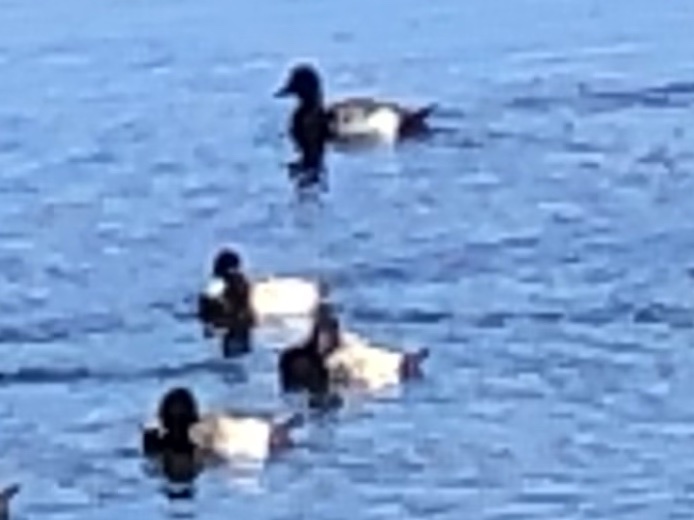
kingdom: Animalia
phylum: Chordata
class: Aves
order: Anseriformes
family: Anatidae
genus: Aythya
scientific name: Aythya affinis
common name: Lesser scaup
